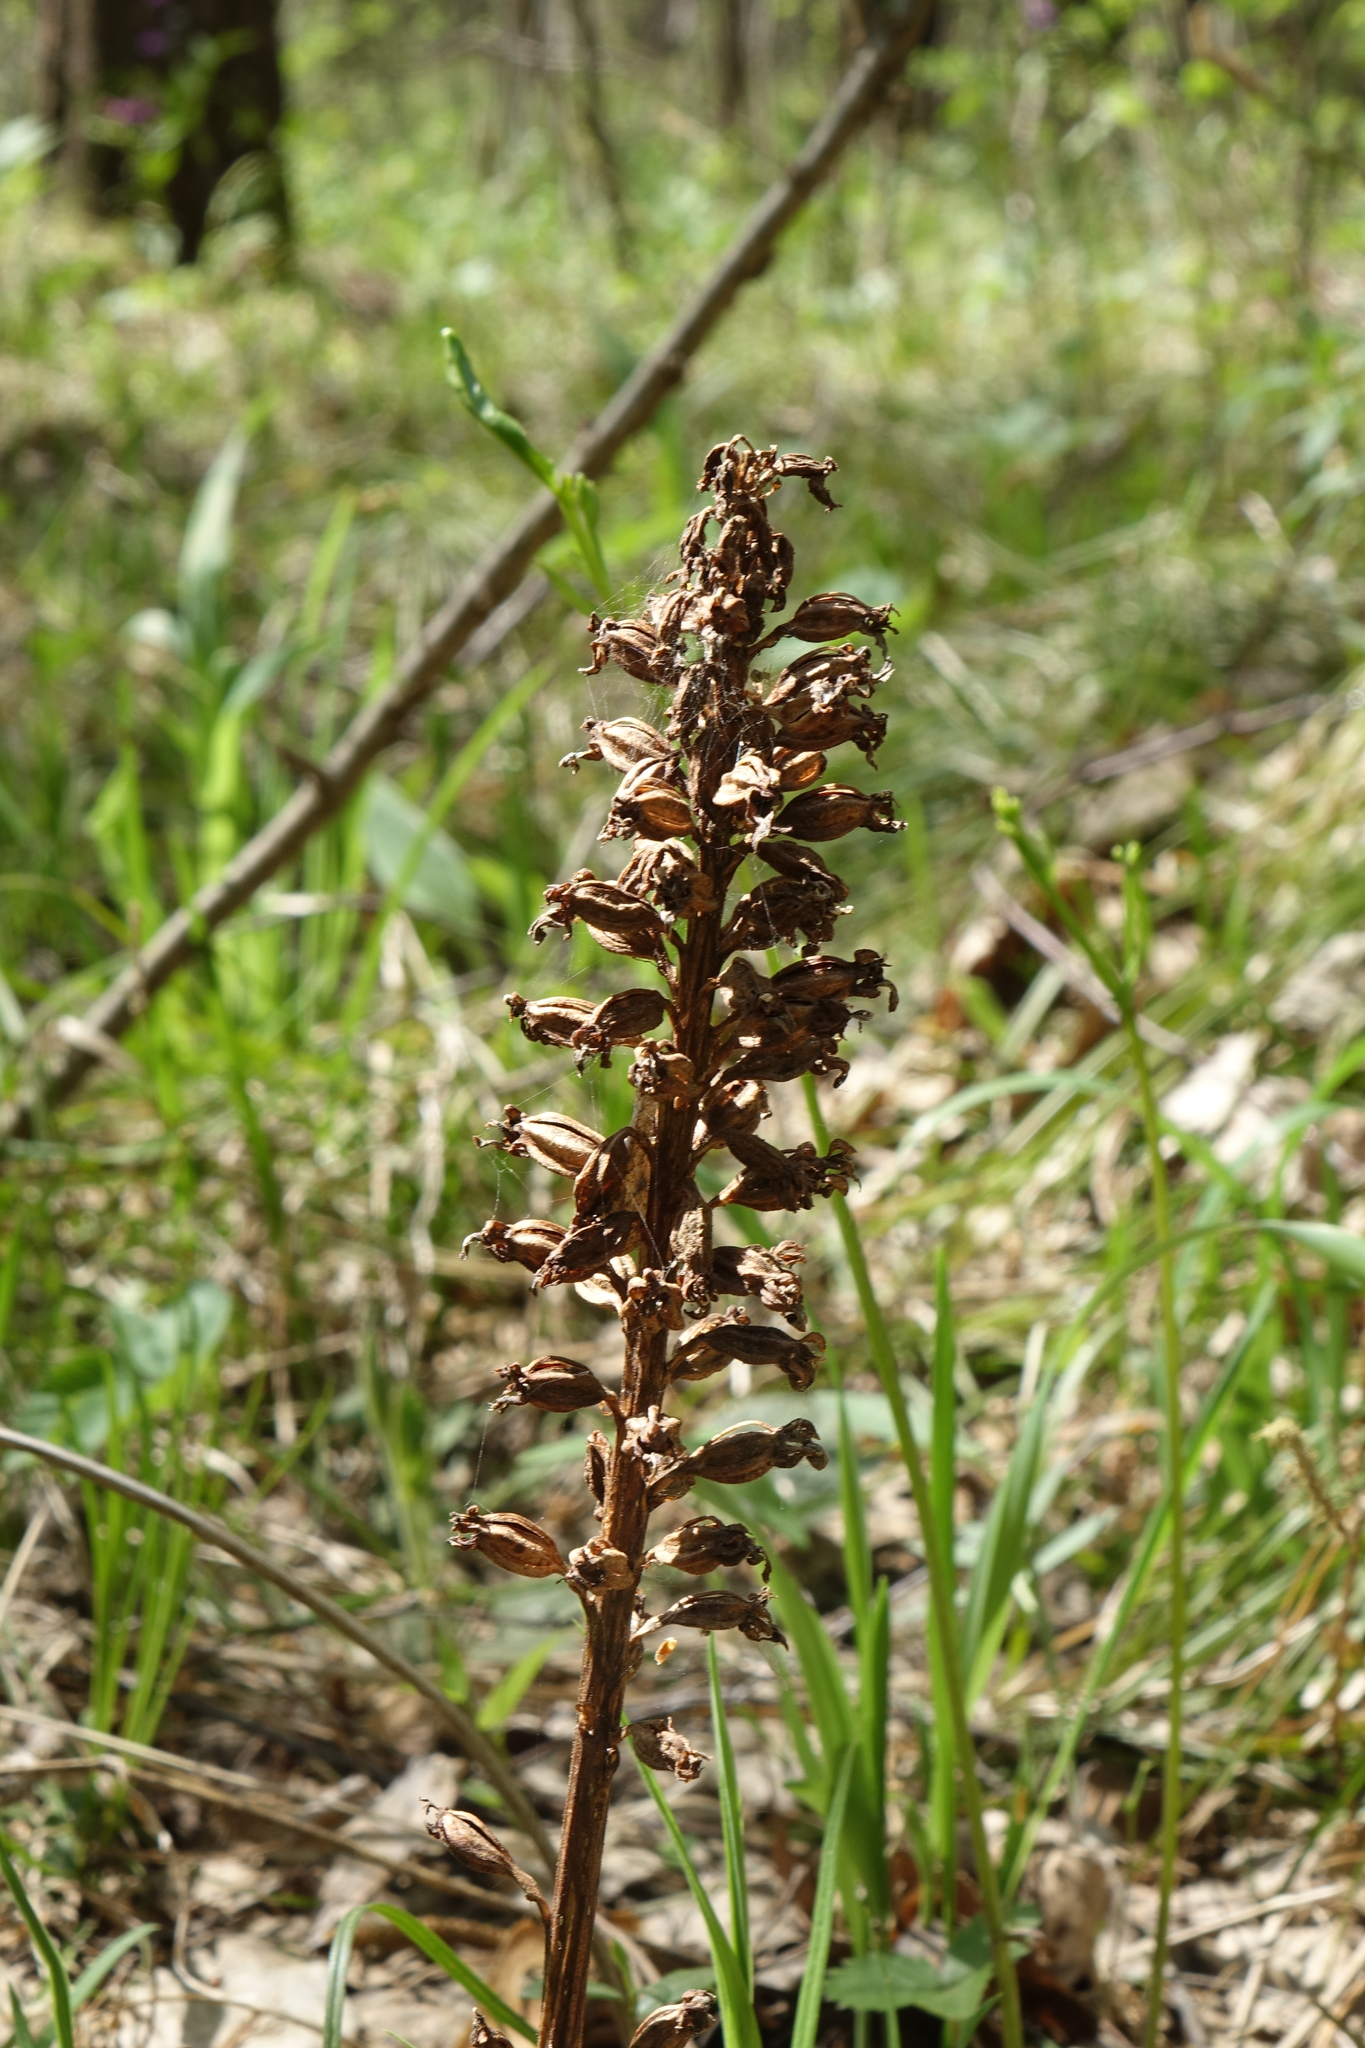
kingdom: Plantae
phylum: Tracheophyta
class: Liliopsida
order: Asparagales
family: Orchidaceae
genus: Neottia
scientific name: Neottia nidus-avis
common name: Bird's-nest orchid
